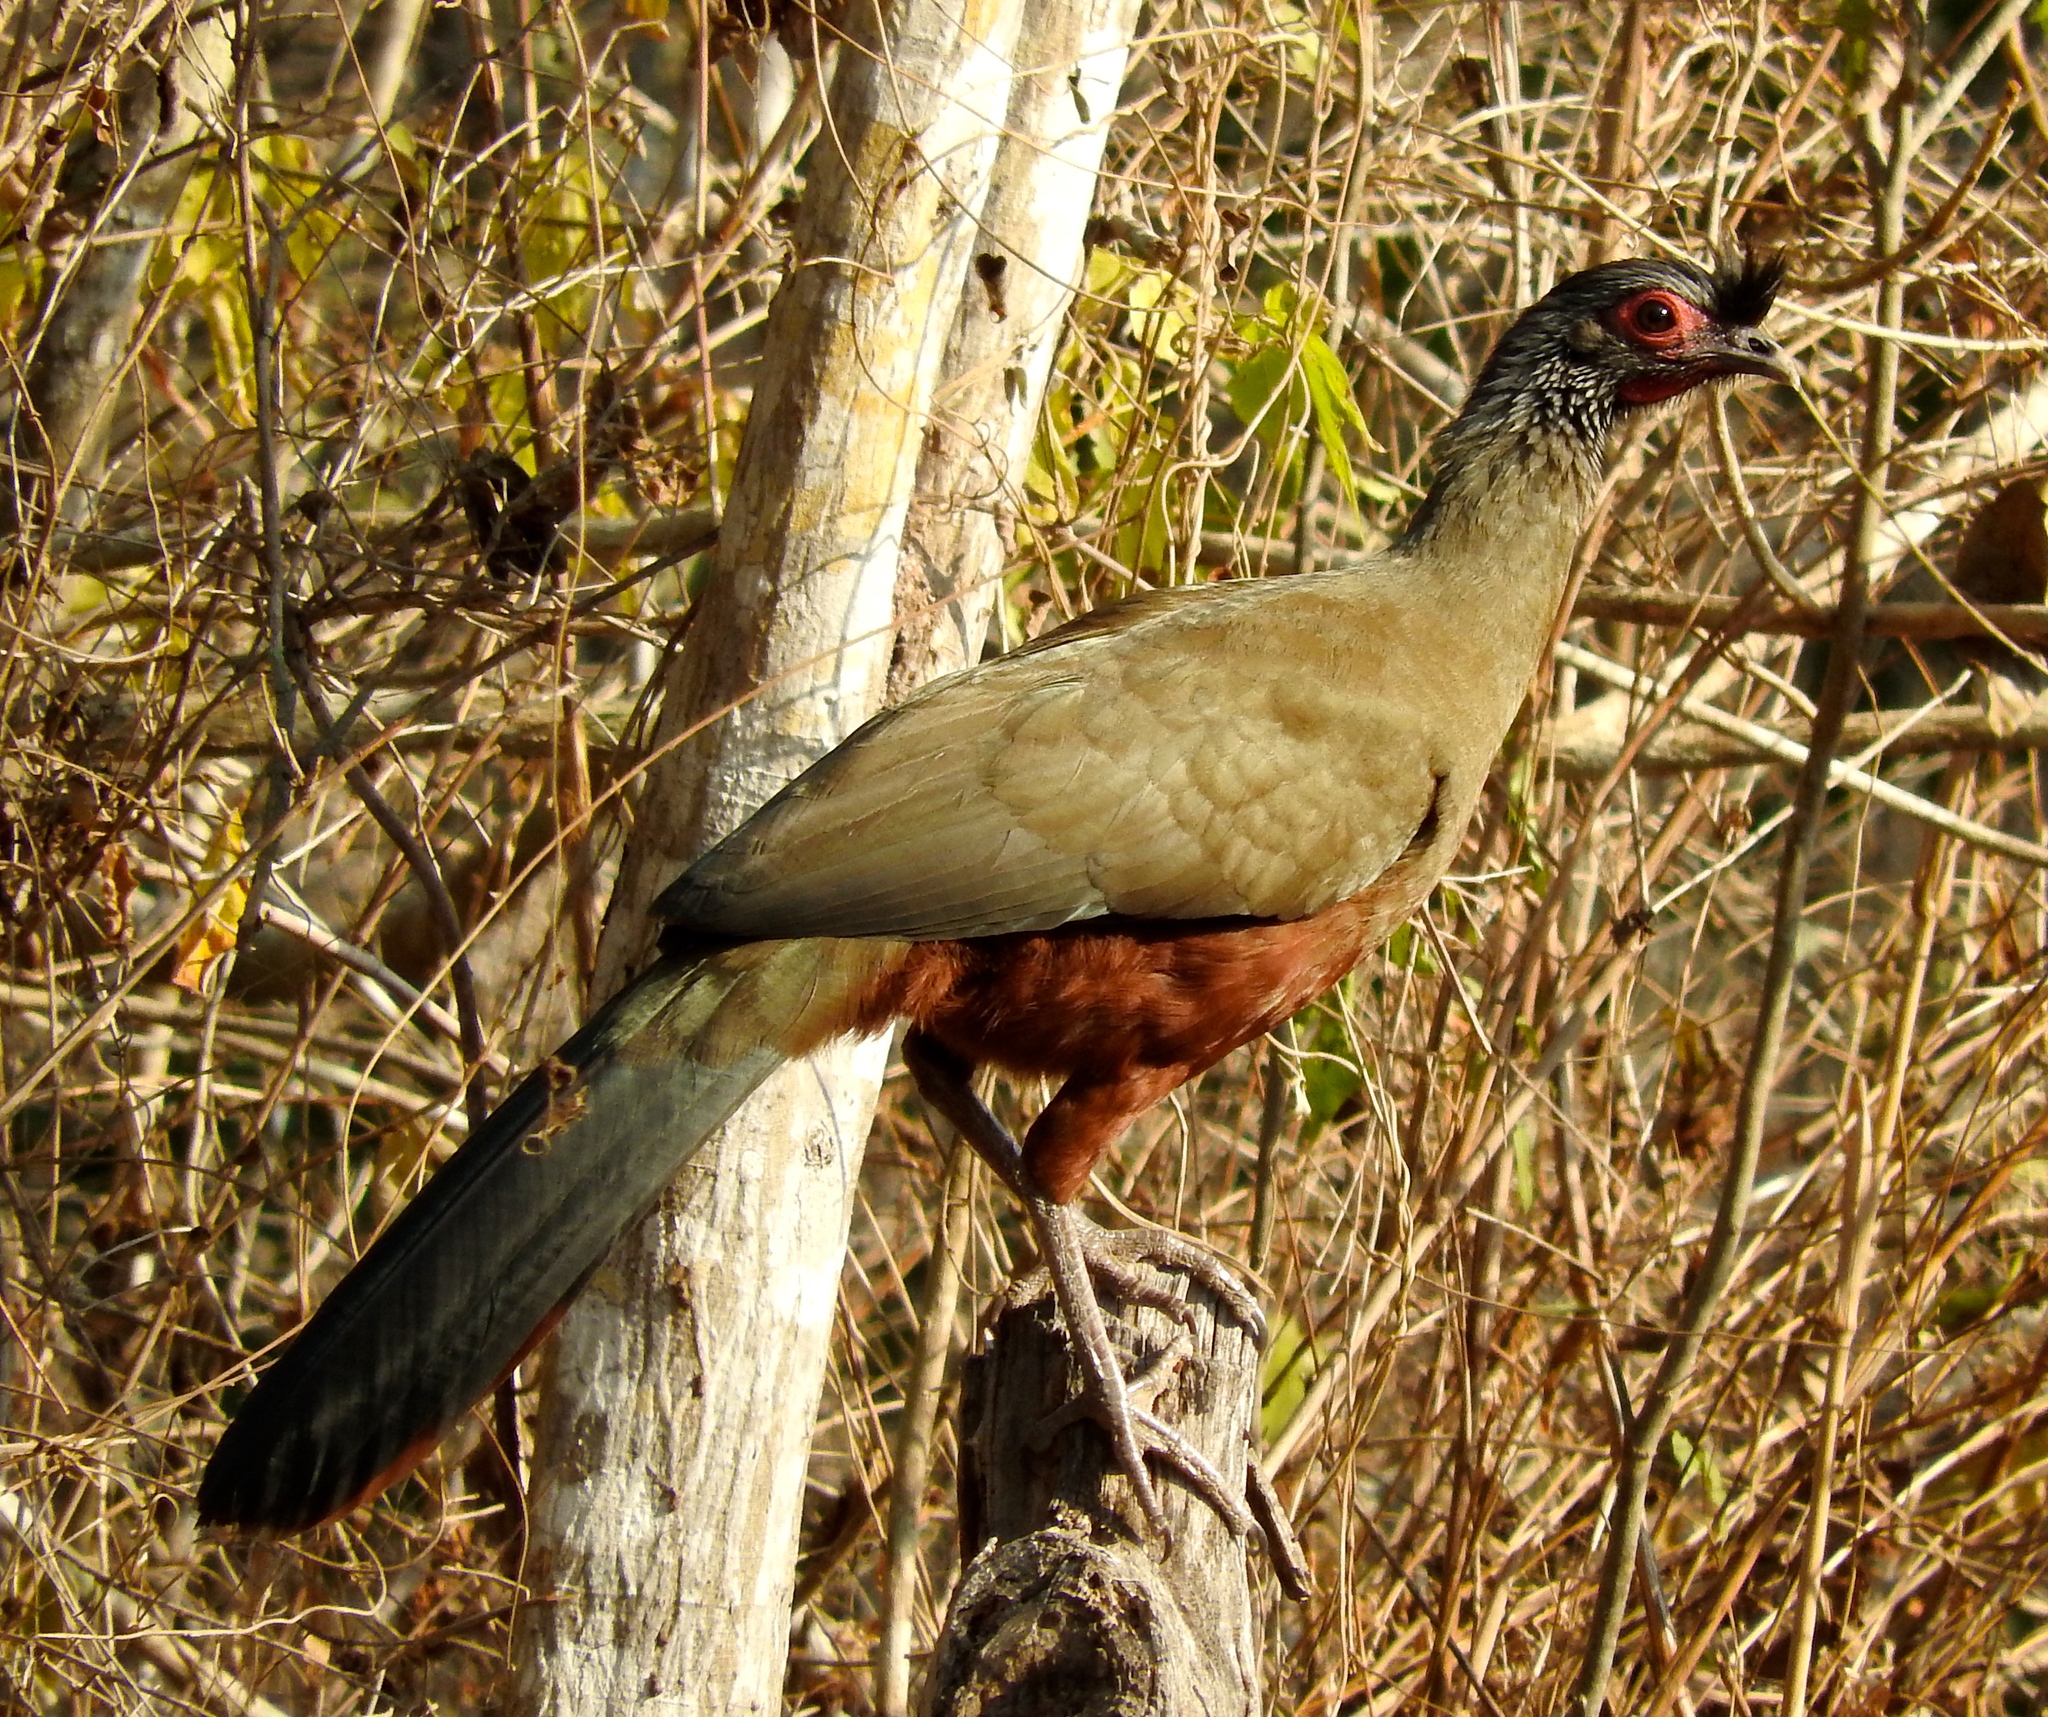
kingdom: Animalia
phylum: Chordata
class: Aves
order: Galliformes
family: Cracidae
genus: Ortalis
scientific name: Ortalis wagleri
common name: Rufous-bellied chachalaca
